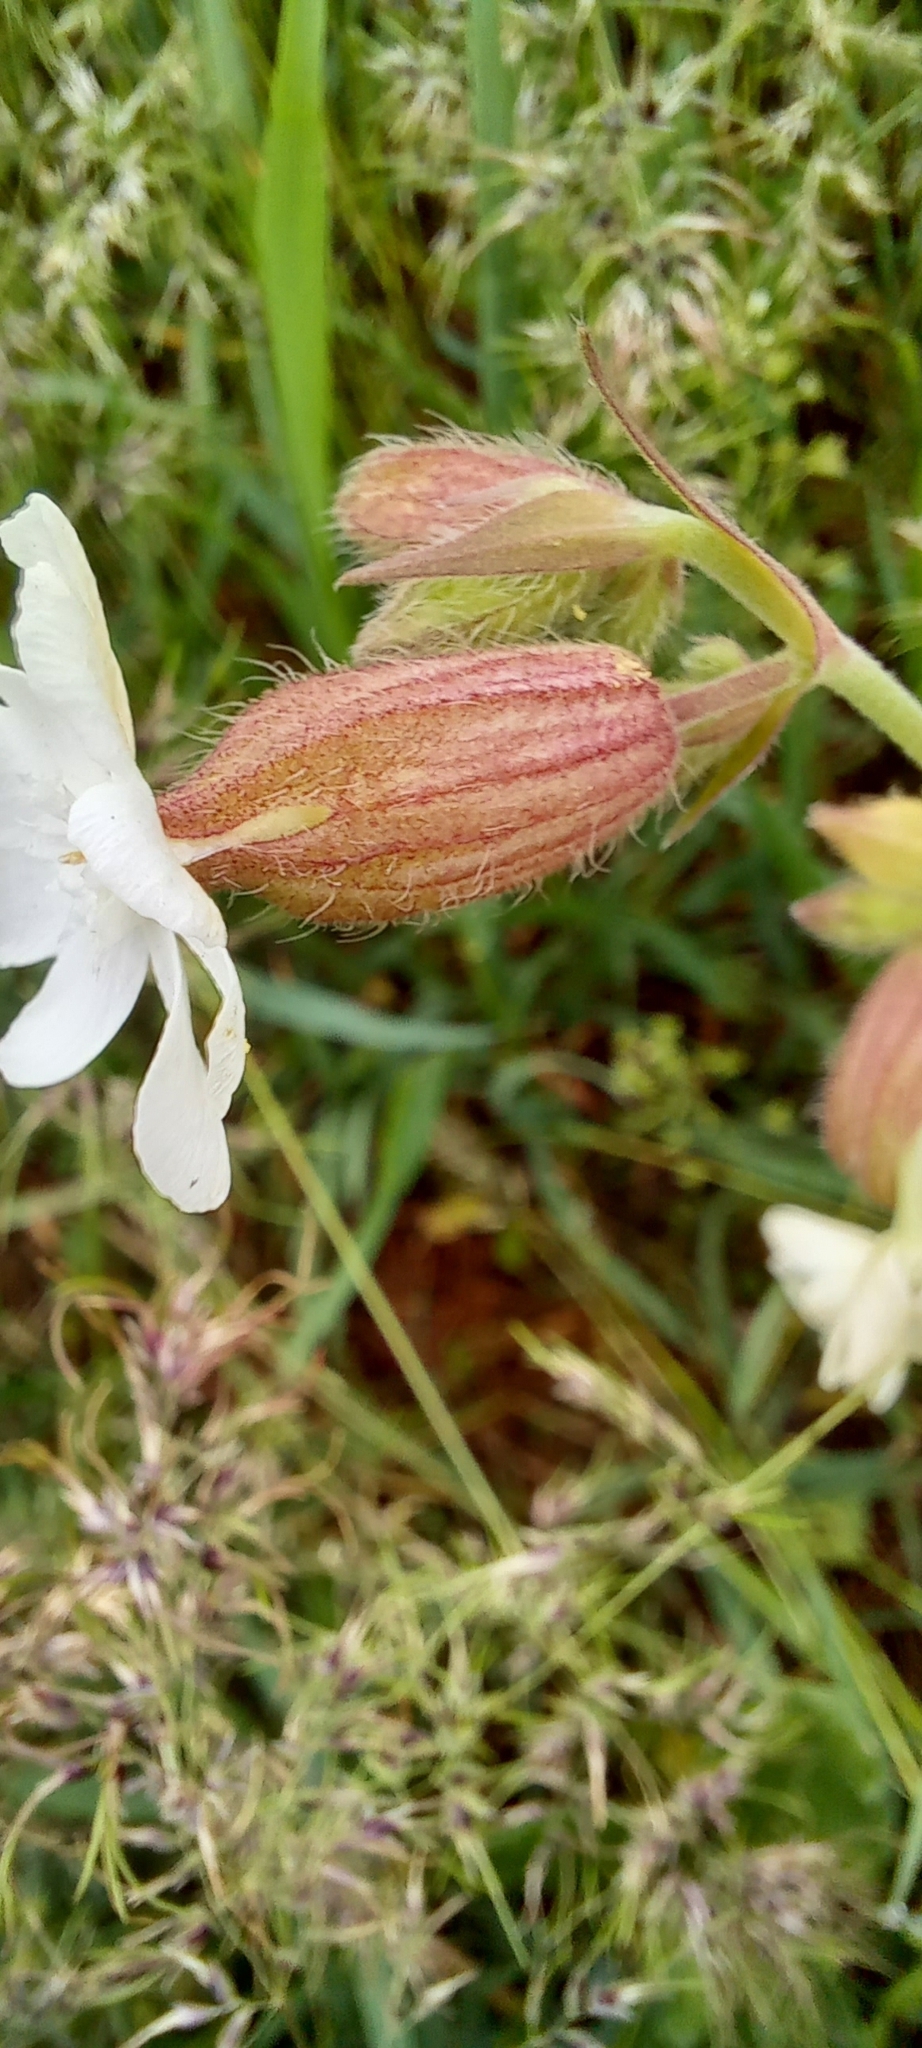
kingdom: Plantae
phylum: Tracheophyta
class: Magnoliopsida
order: Caryophyllales
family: Caryophyllaceae
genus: Silene
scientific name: Silene latifolia
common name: White campion
